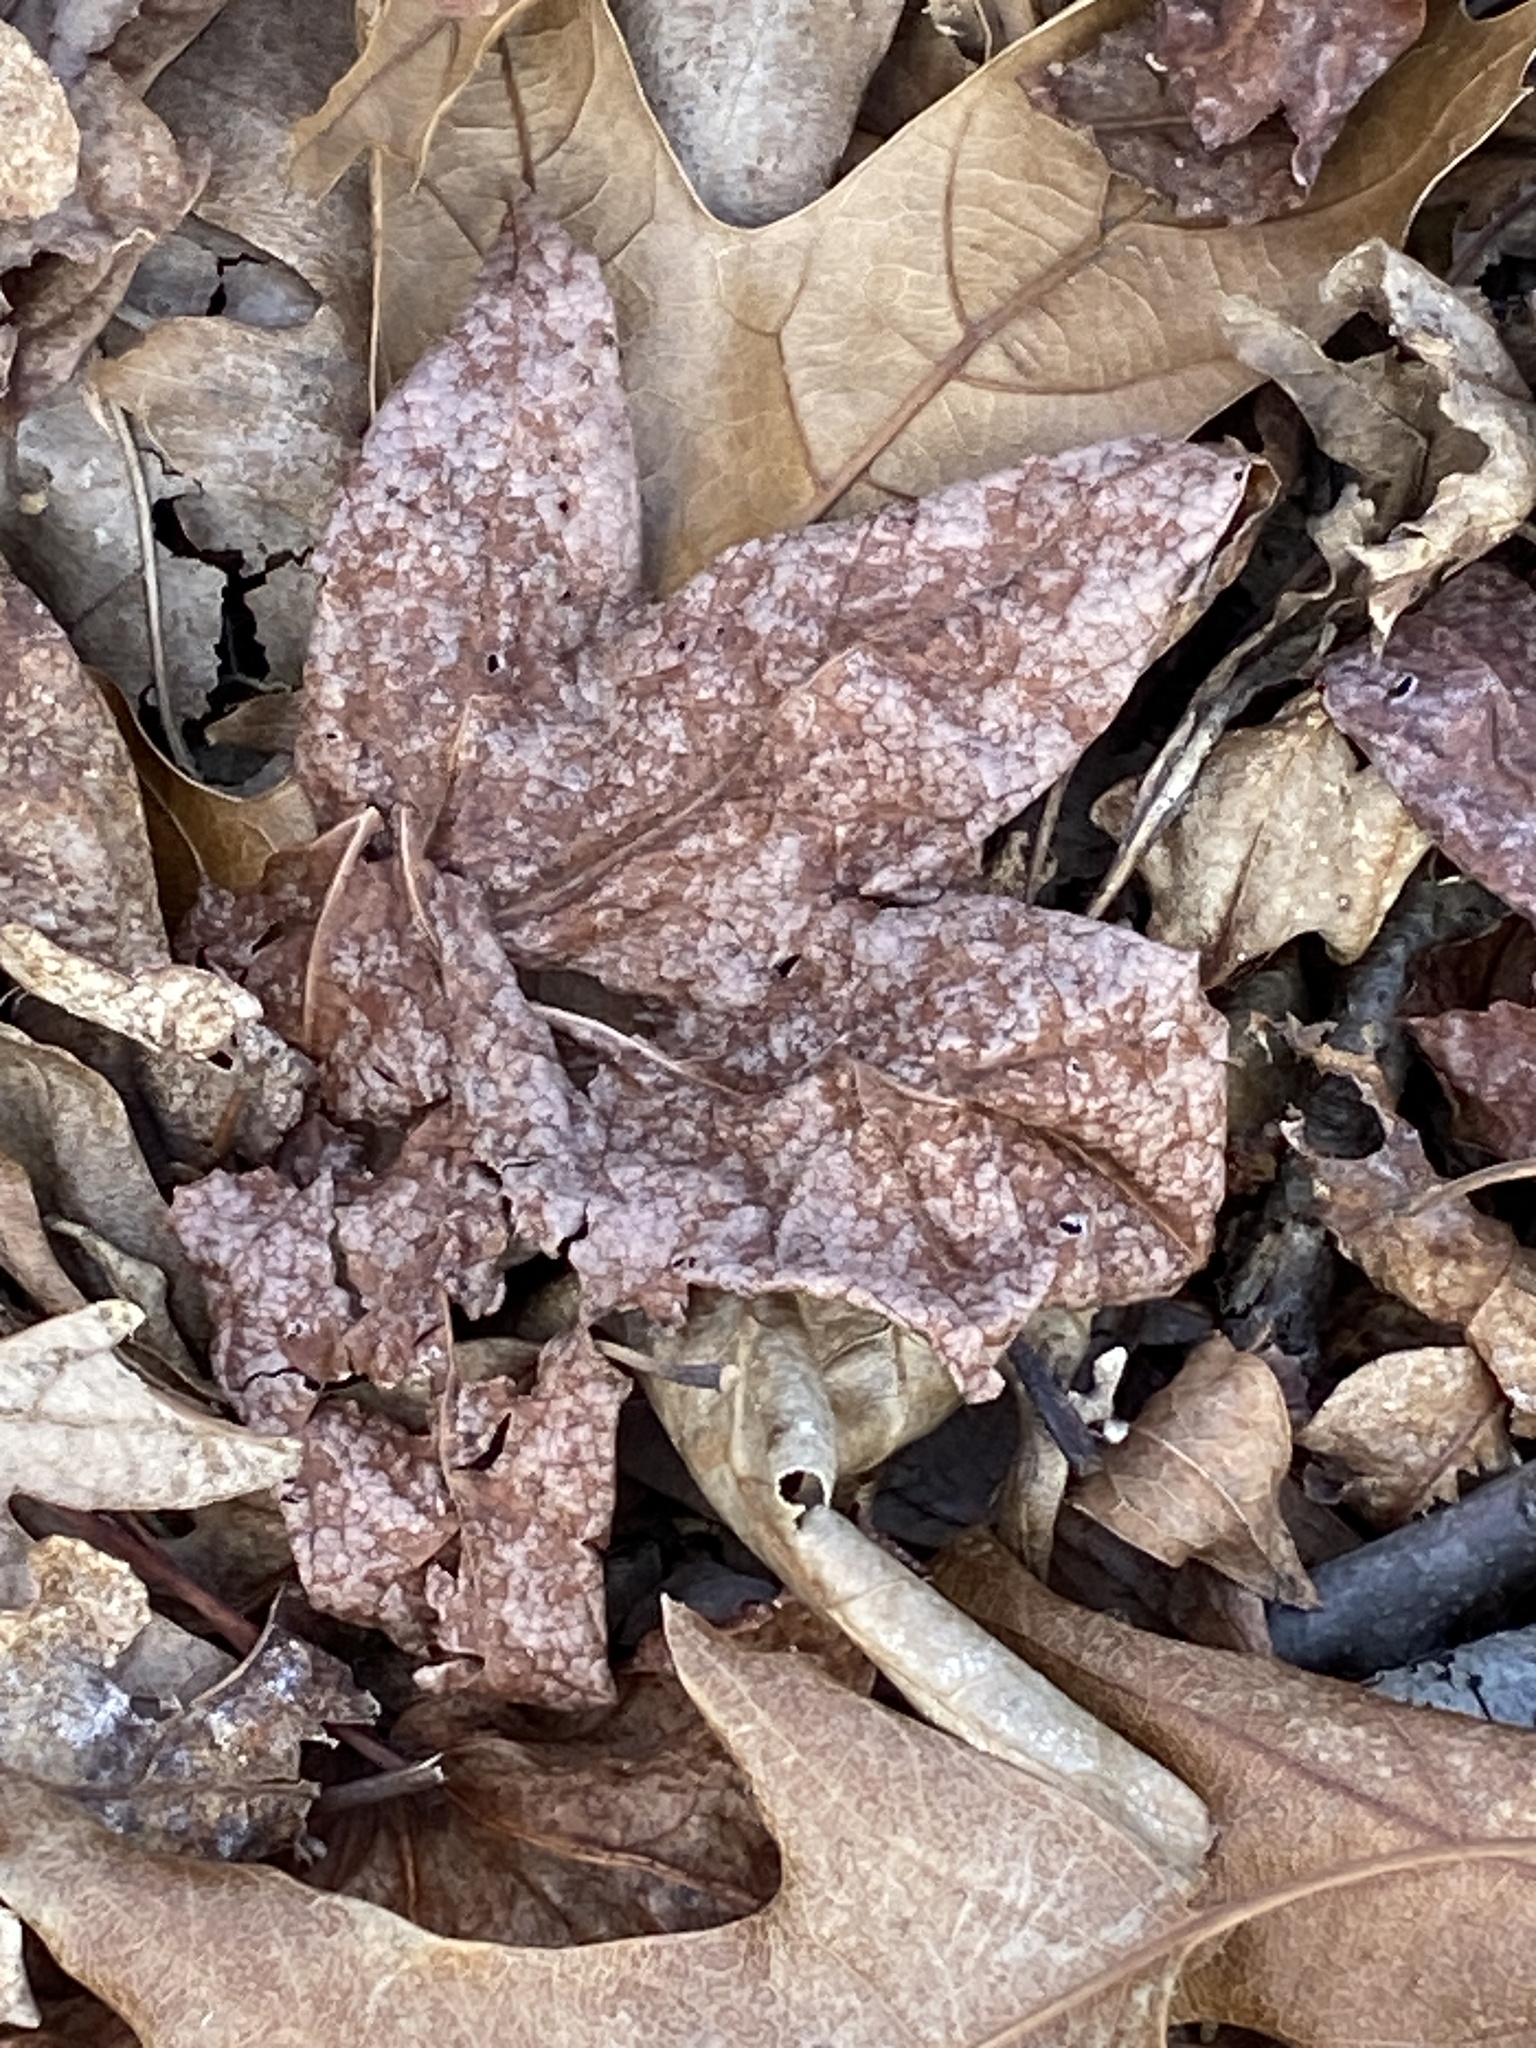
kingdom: Plantae
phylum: Tracheophyta
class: Magnoliopsida
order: Saxifragales
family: Altingiaceae
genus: Liquidambar
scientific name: Liquidambar styraciflua
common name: Sweet gum
